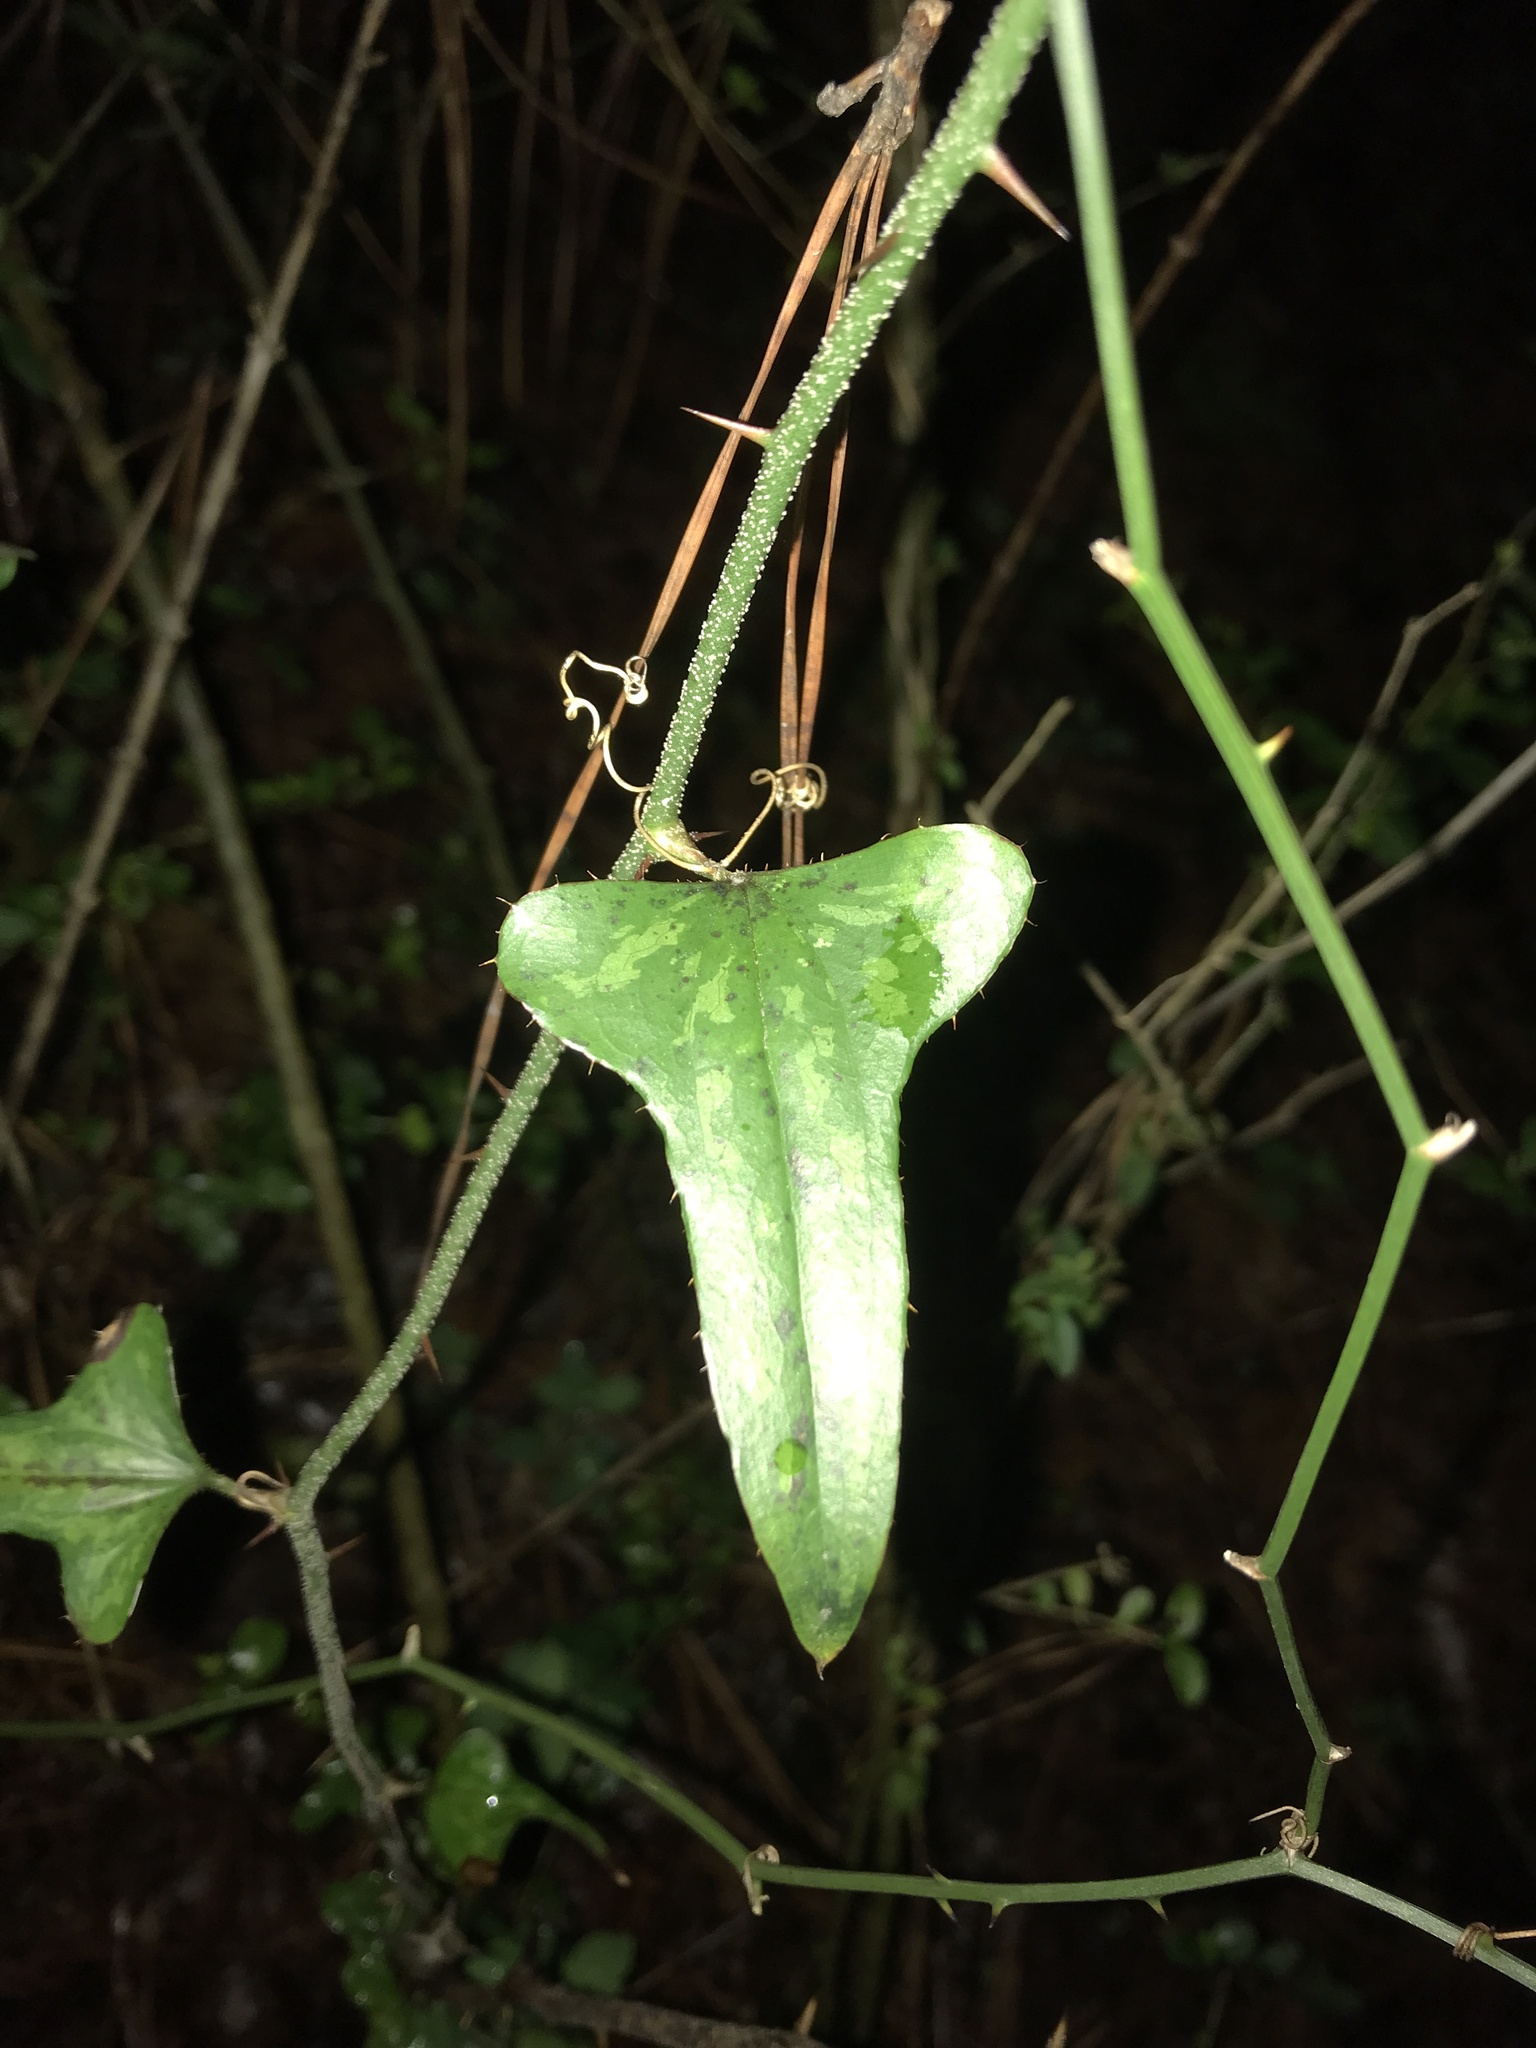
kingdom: Plantae
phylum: Tracheophyta
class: Liliopsida
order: Liliales
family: Smilacaceae
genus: Smilax
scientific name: Smilax bona-nox
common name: Catbrier
